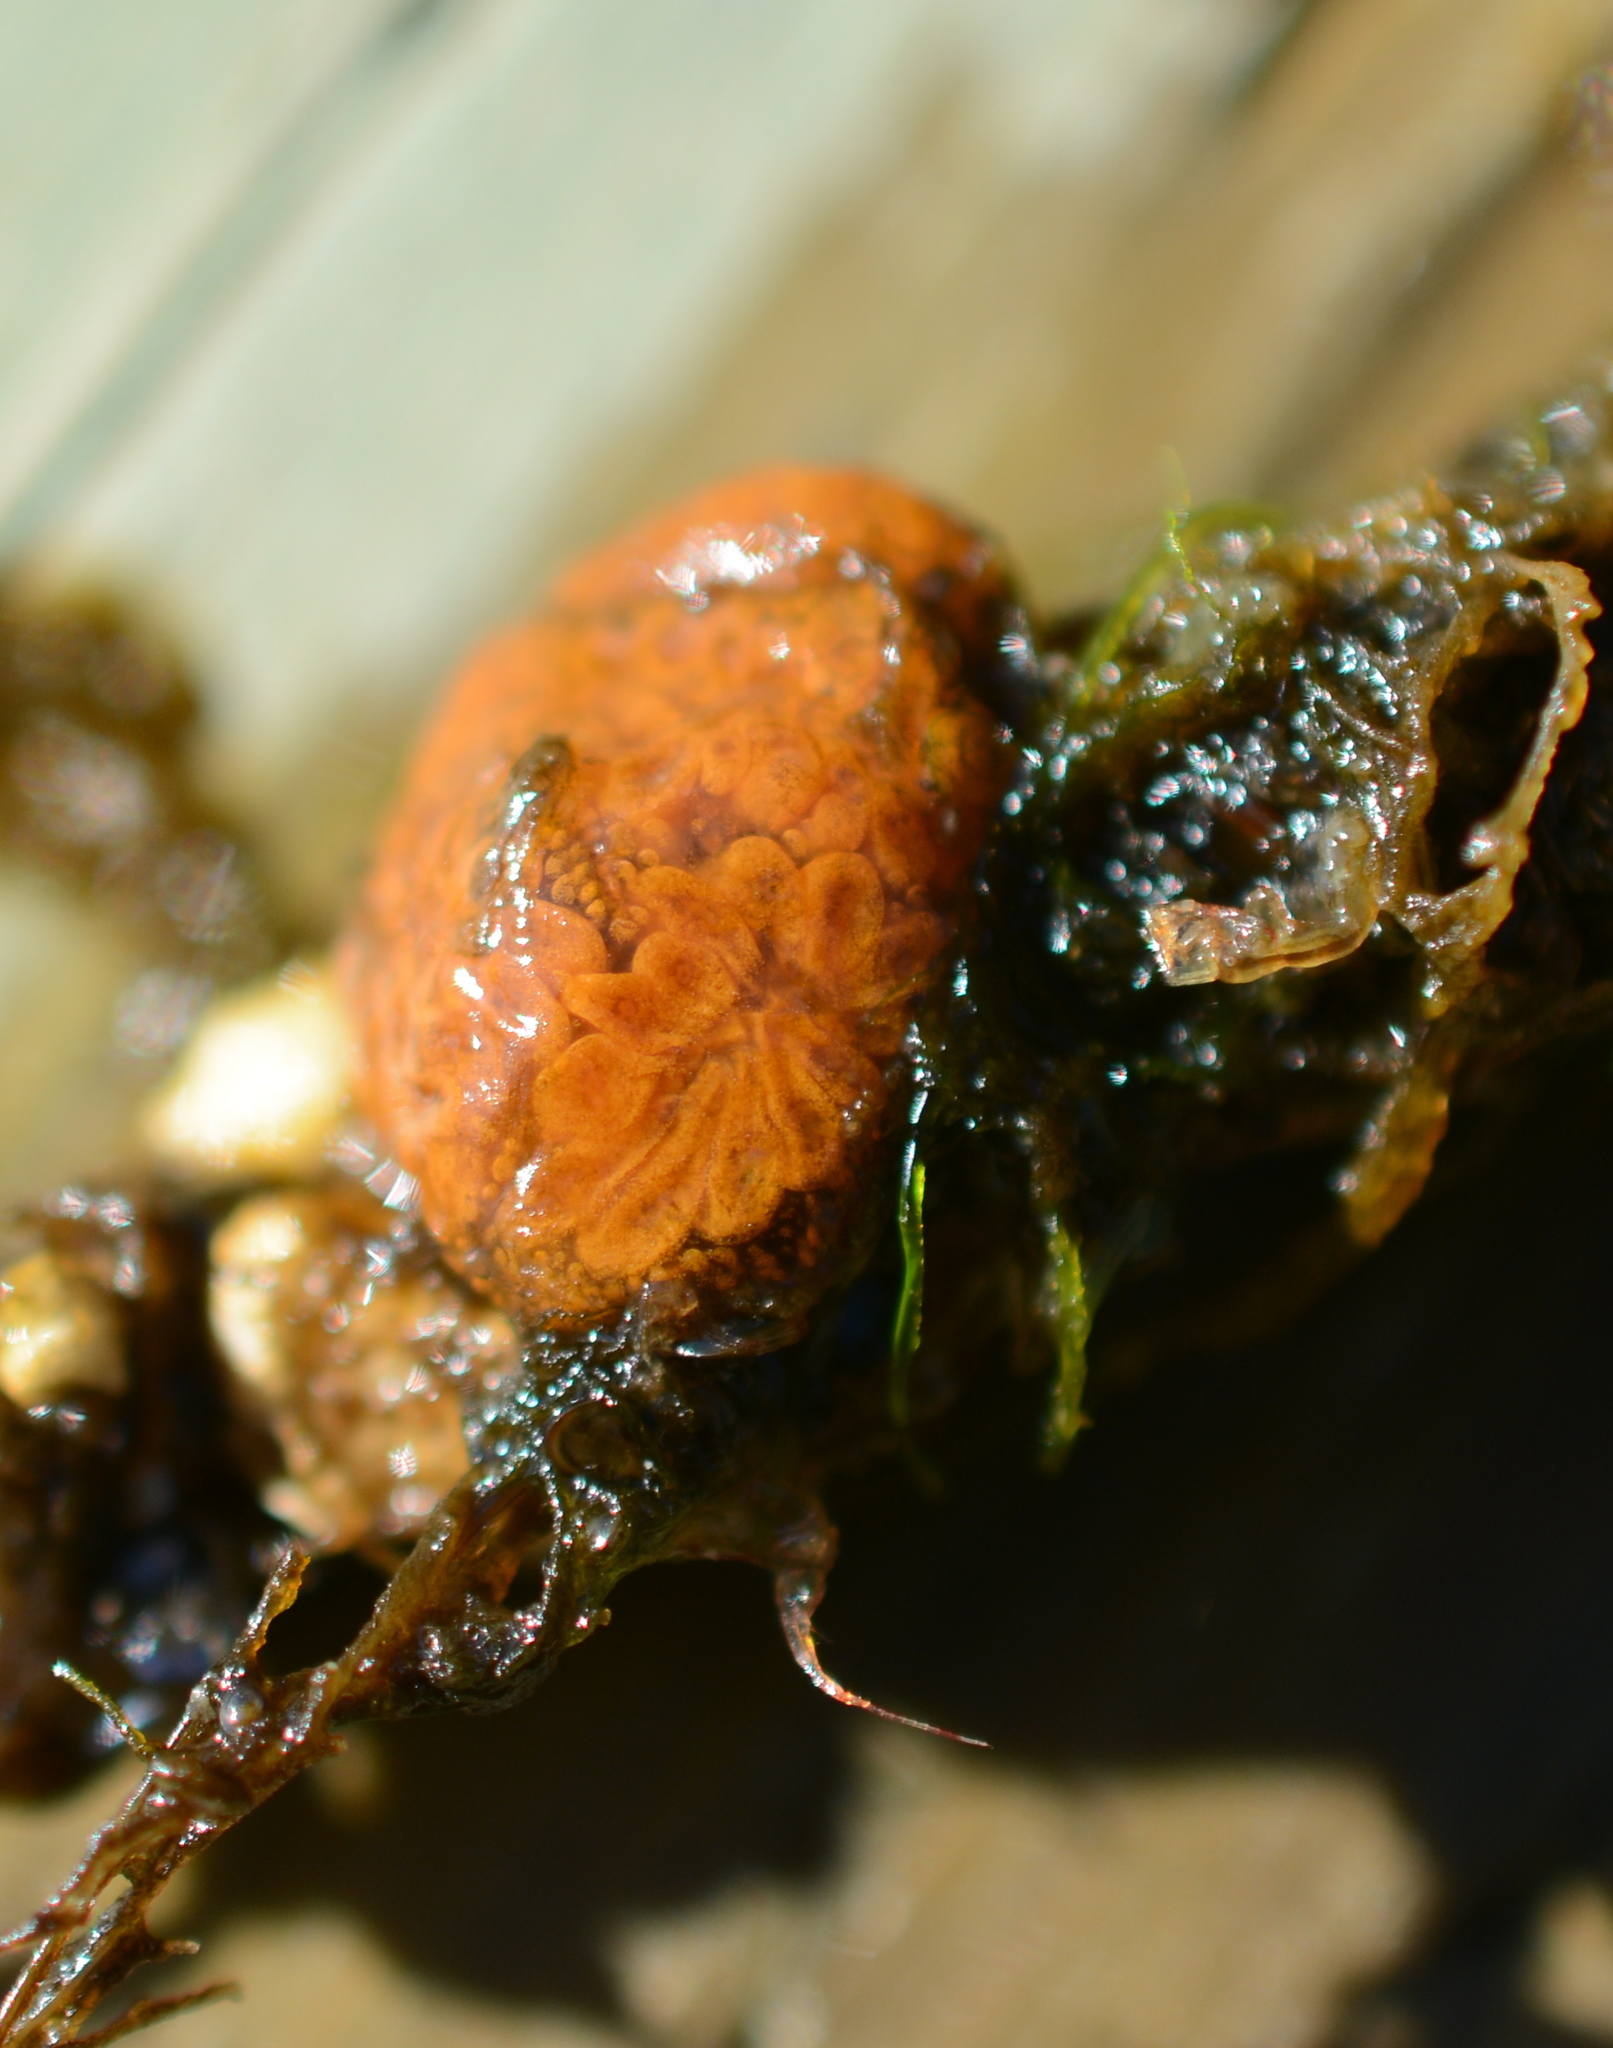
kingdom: Animalia
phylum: Chordata
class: Ascidiacea
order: Stolidobranchia
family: Styelidae
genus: Botryllus
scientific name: Botryllus schlosseri
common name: Golden star tunicate
